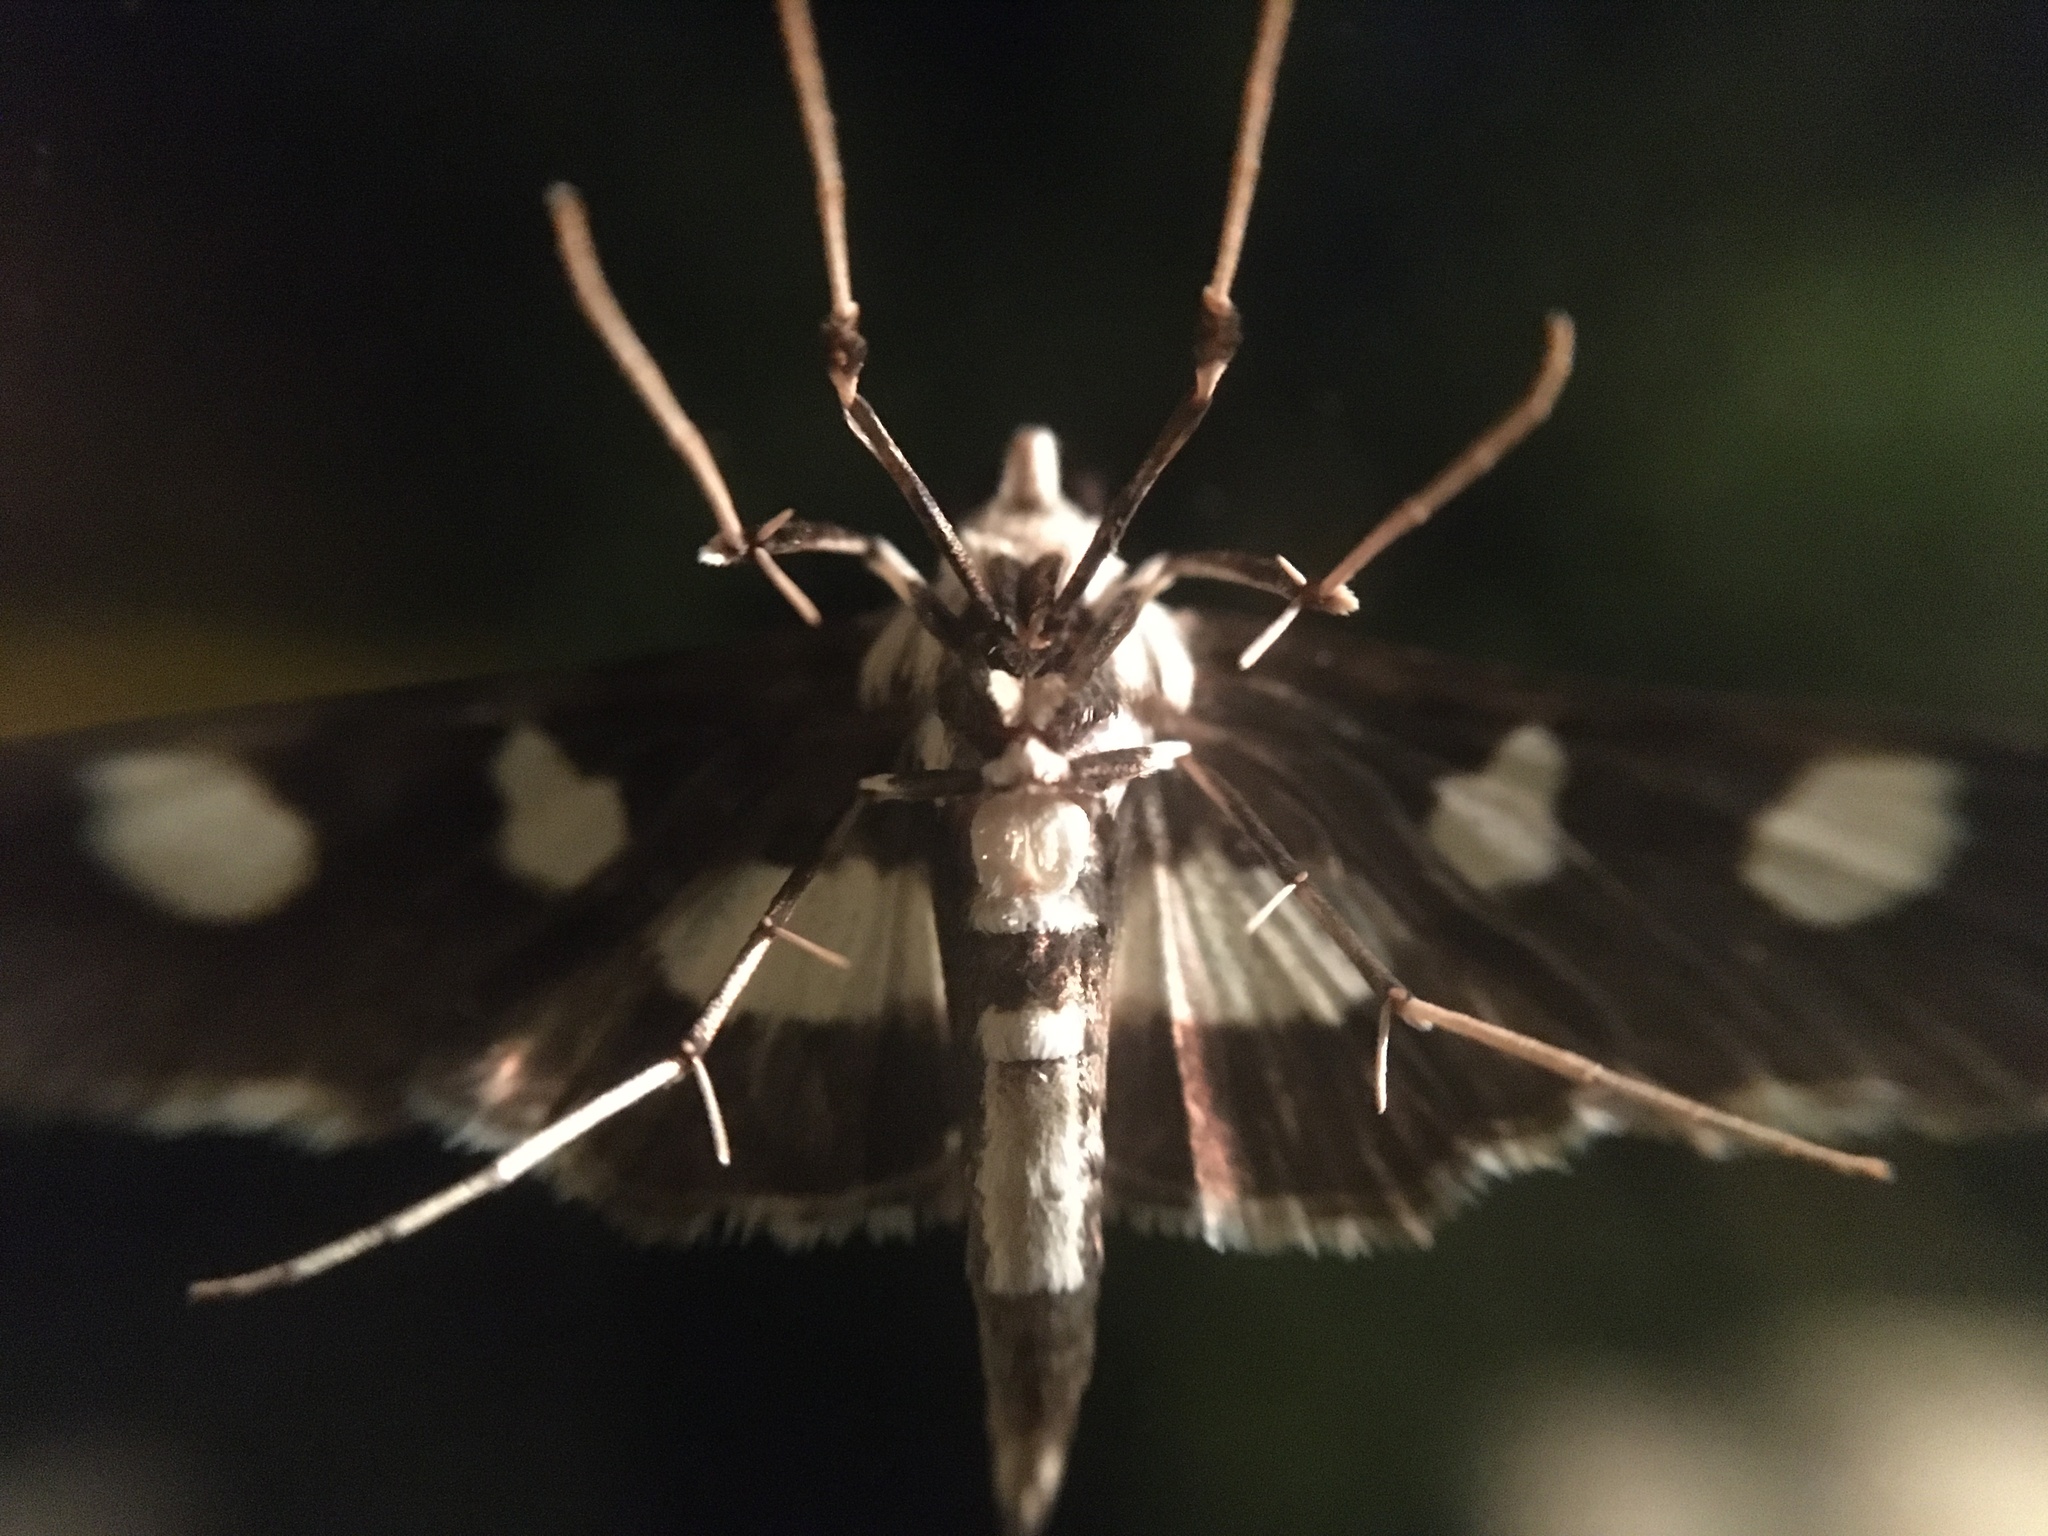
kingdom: Animalia
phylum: Arthropoda
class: Insecta
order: Lepidoptera
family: Crambidae
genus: Desmia
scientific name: Desmia funeralis
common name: Grape leaf folder moth
